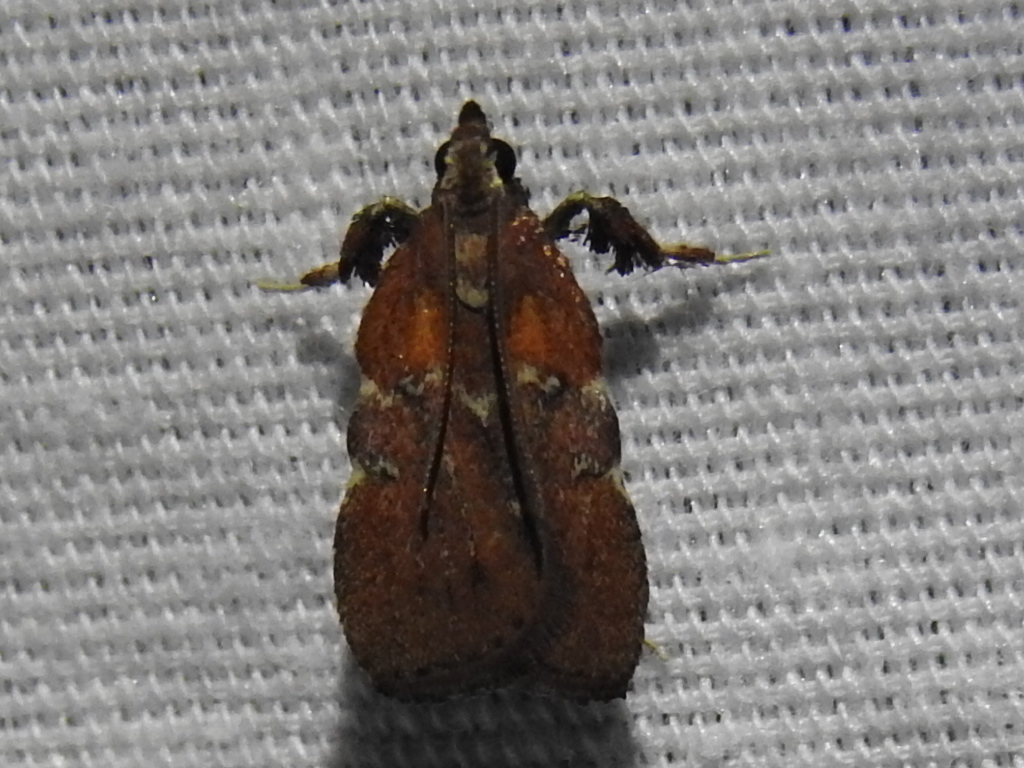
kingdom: Animalia
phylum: Arthropoda
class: Insecta
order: Lepidoptera
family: Pyralidae
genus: Galasa
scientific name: Galasa nigrinodis
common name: Boxwood leaftier moth
